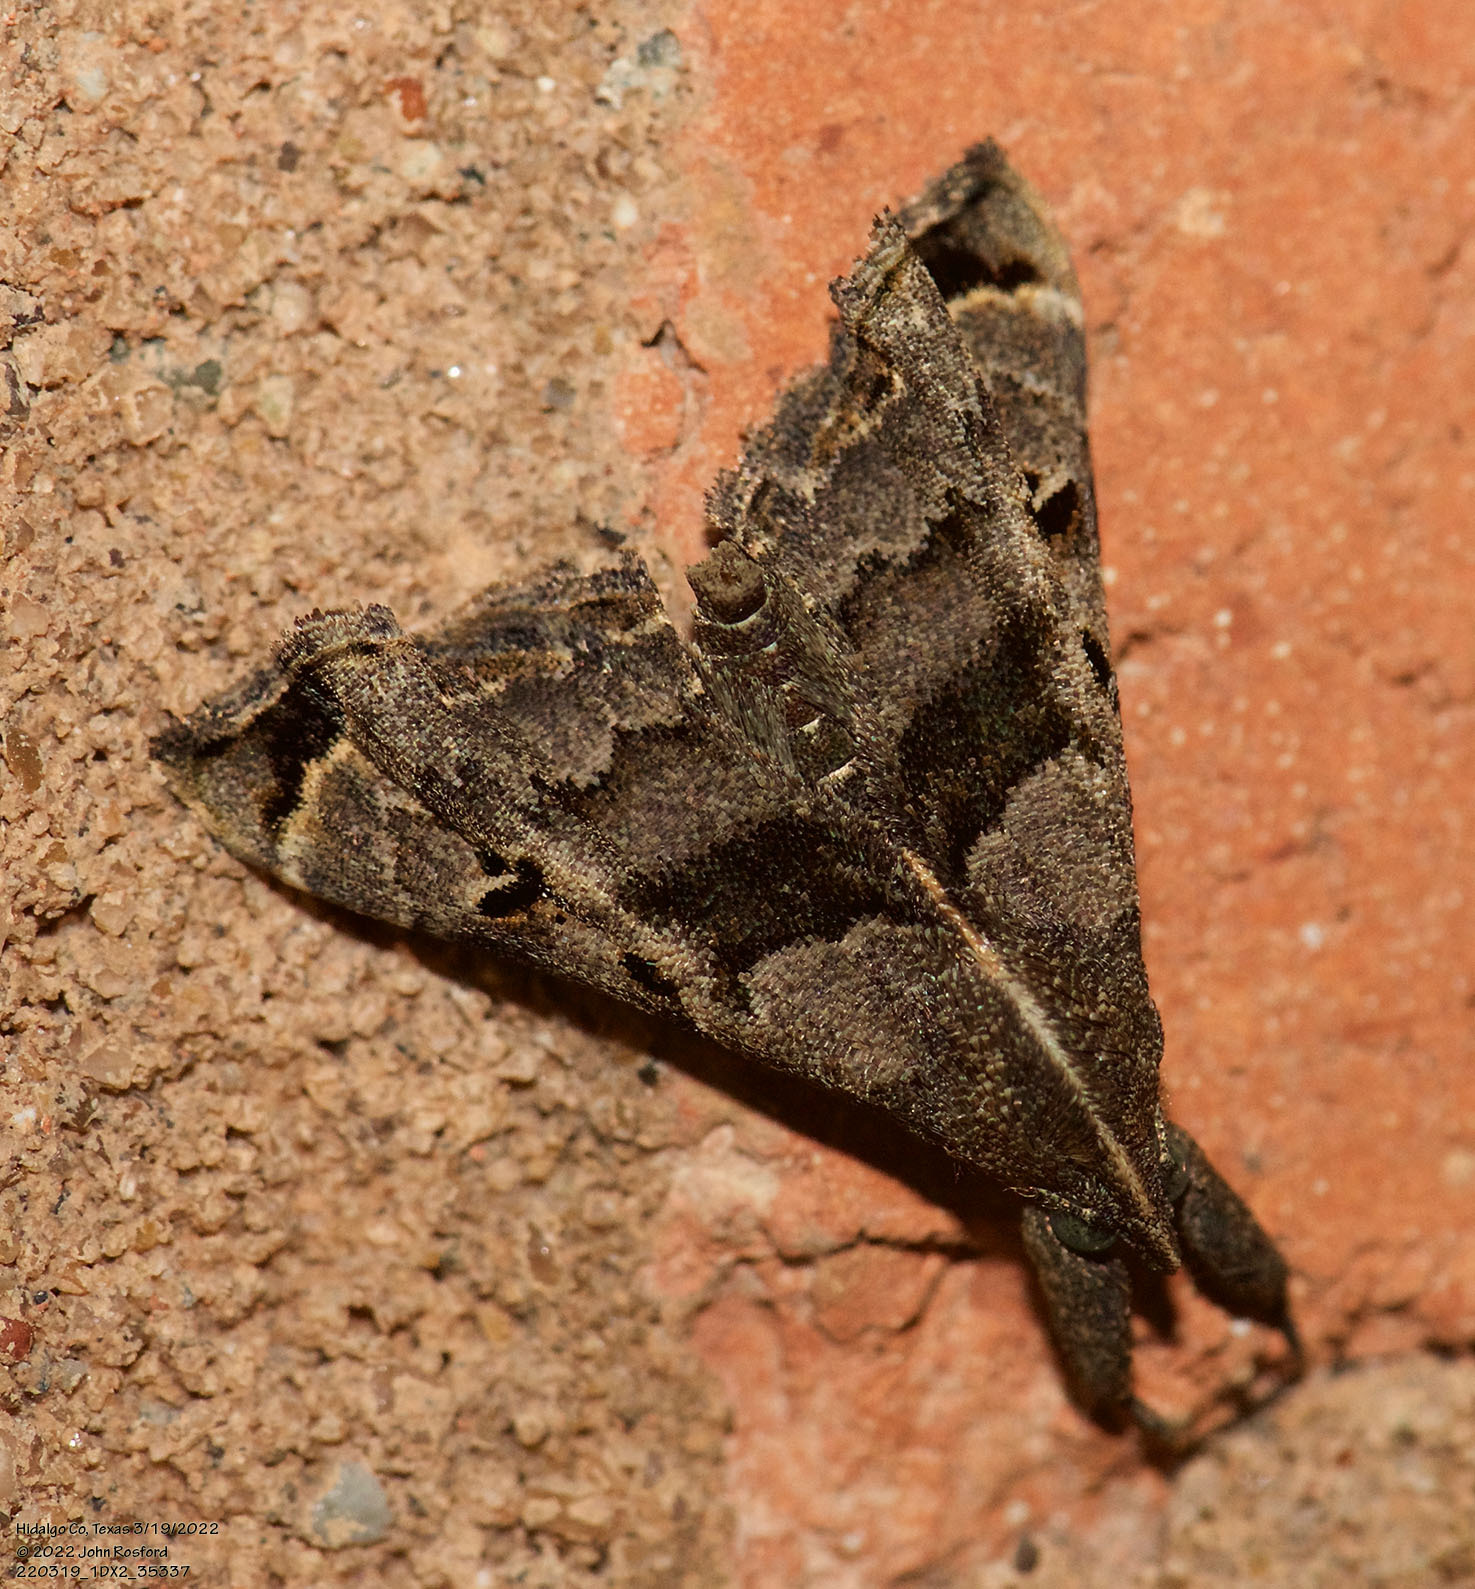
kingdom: Animalia
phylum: Arthropoda
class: Insecta
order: Lepidoptera
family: Erebidae
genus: Palthis
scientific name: Palthis asopialis
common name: Faint-spotted palthis moth
